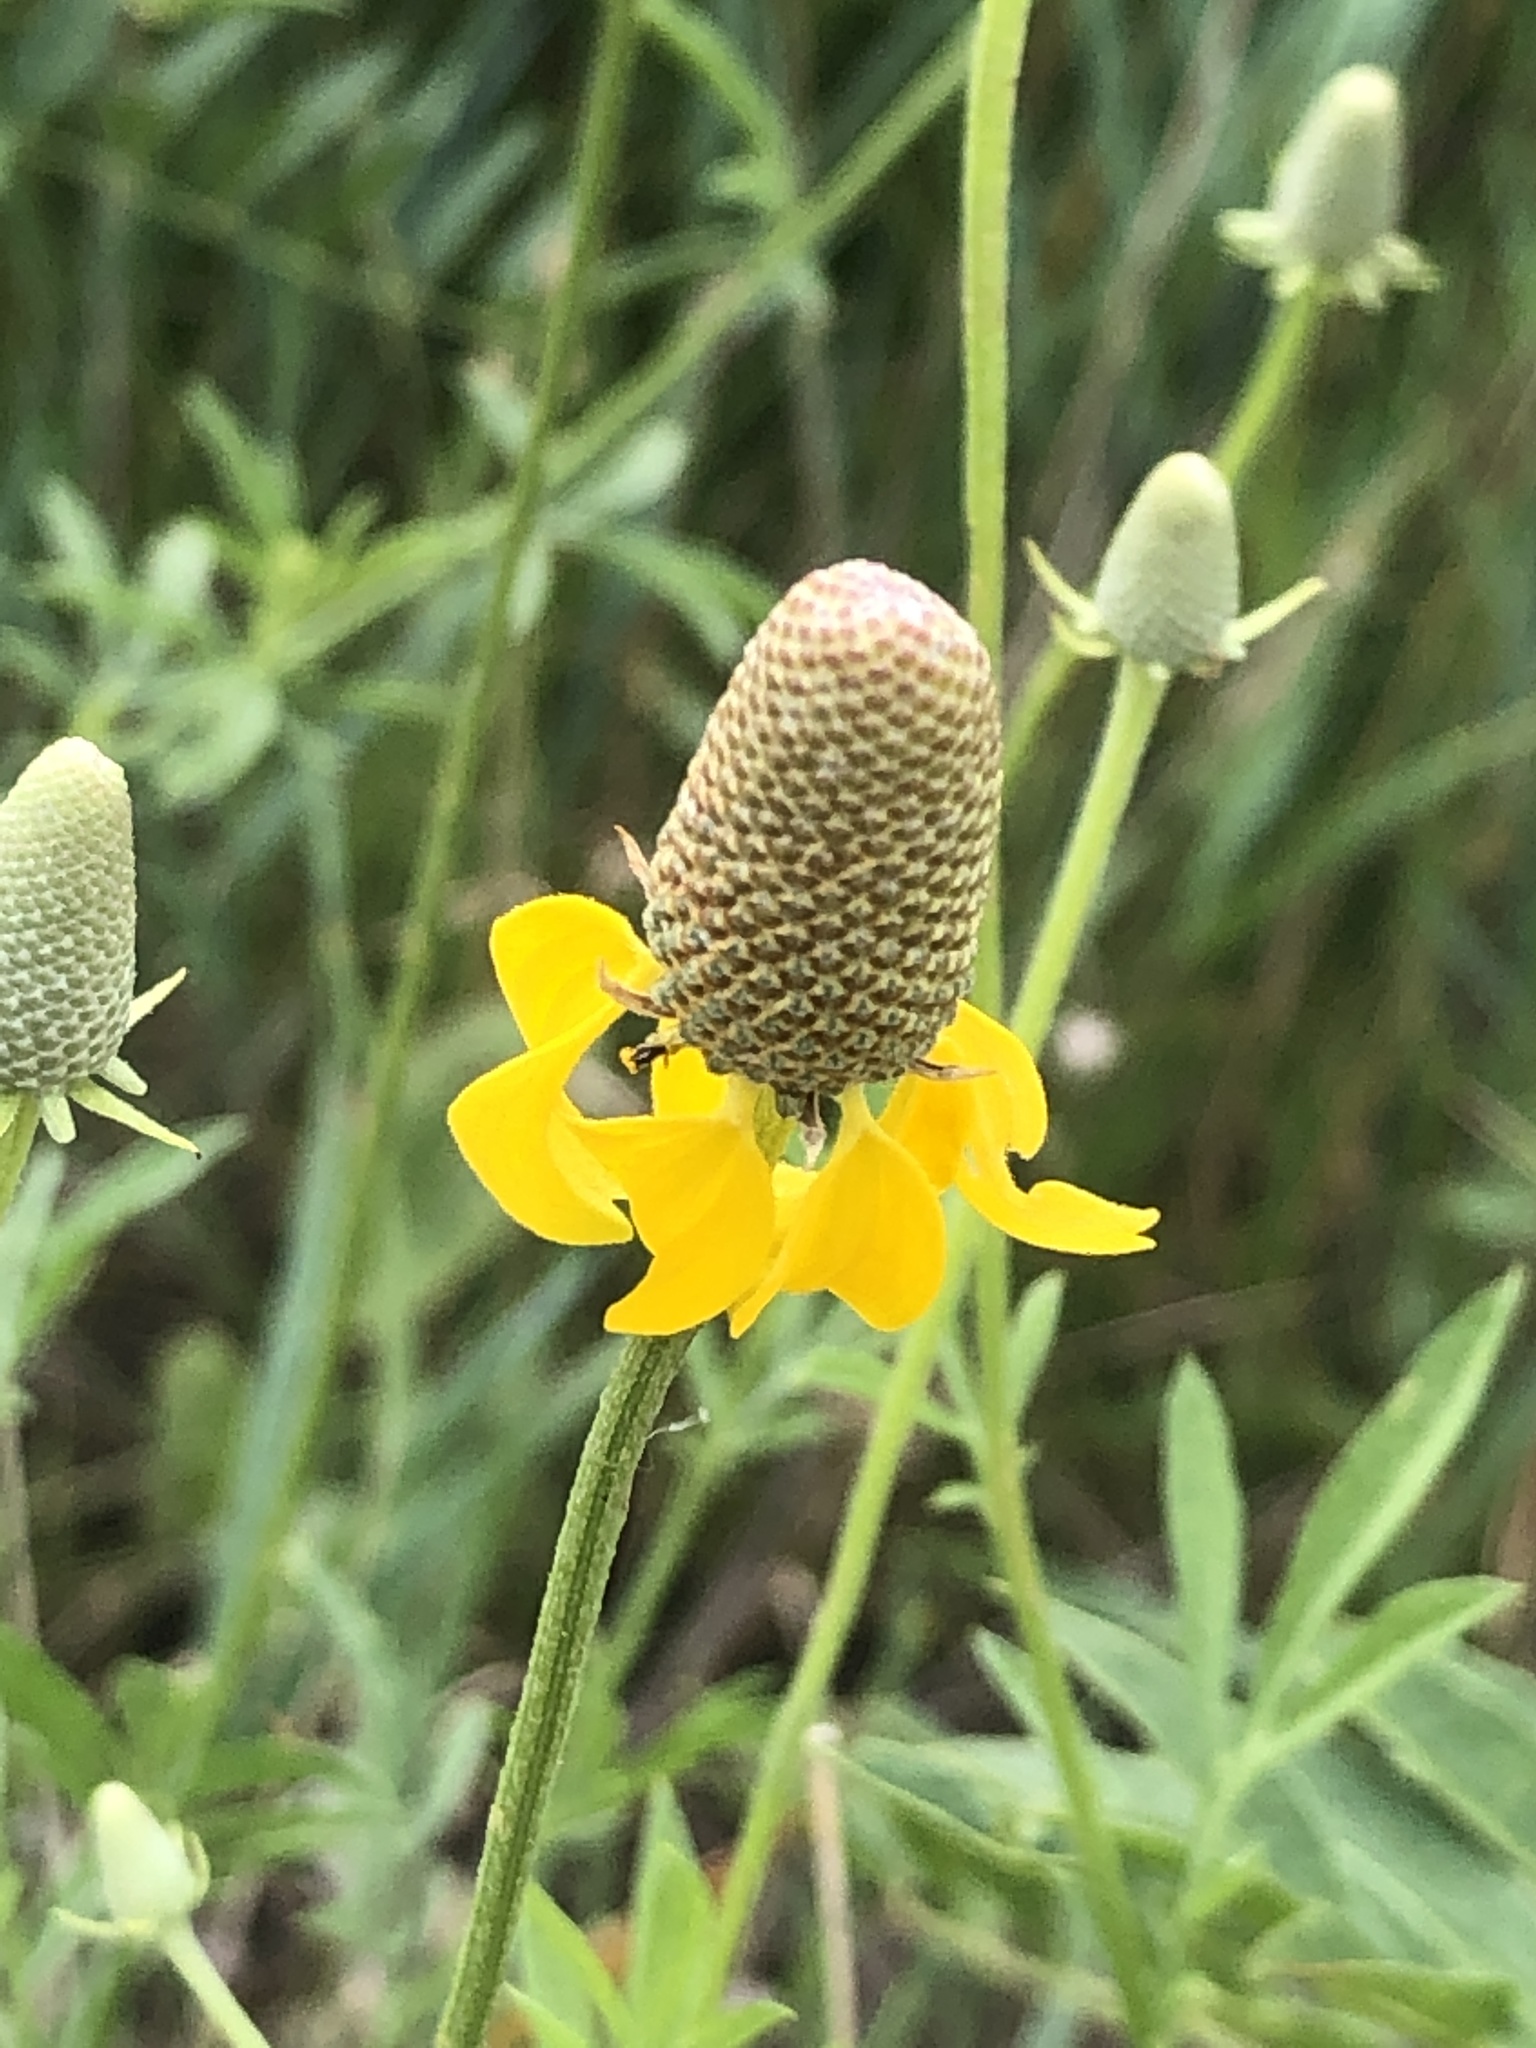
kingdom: Plantae
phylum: Tracheophyta
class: Magnoliopsida
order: Asterales
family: Asteraceae
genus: Ratibida
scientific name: Ratibida columnifera
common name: Prairie coneflower
